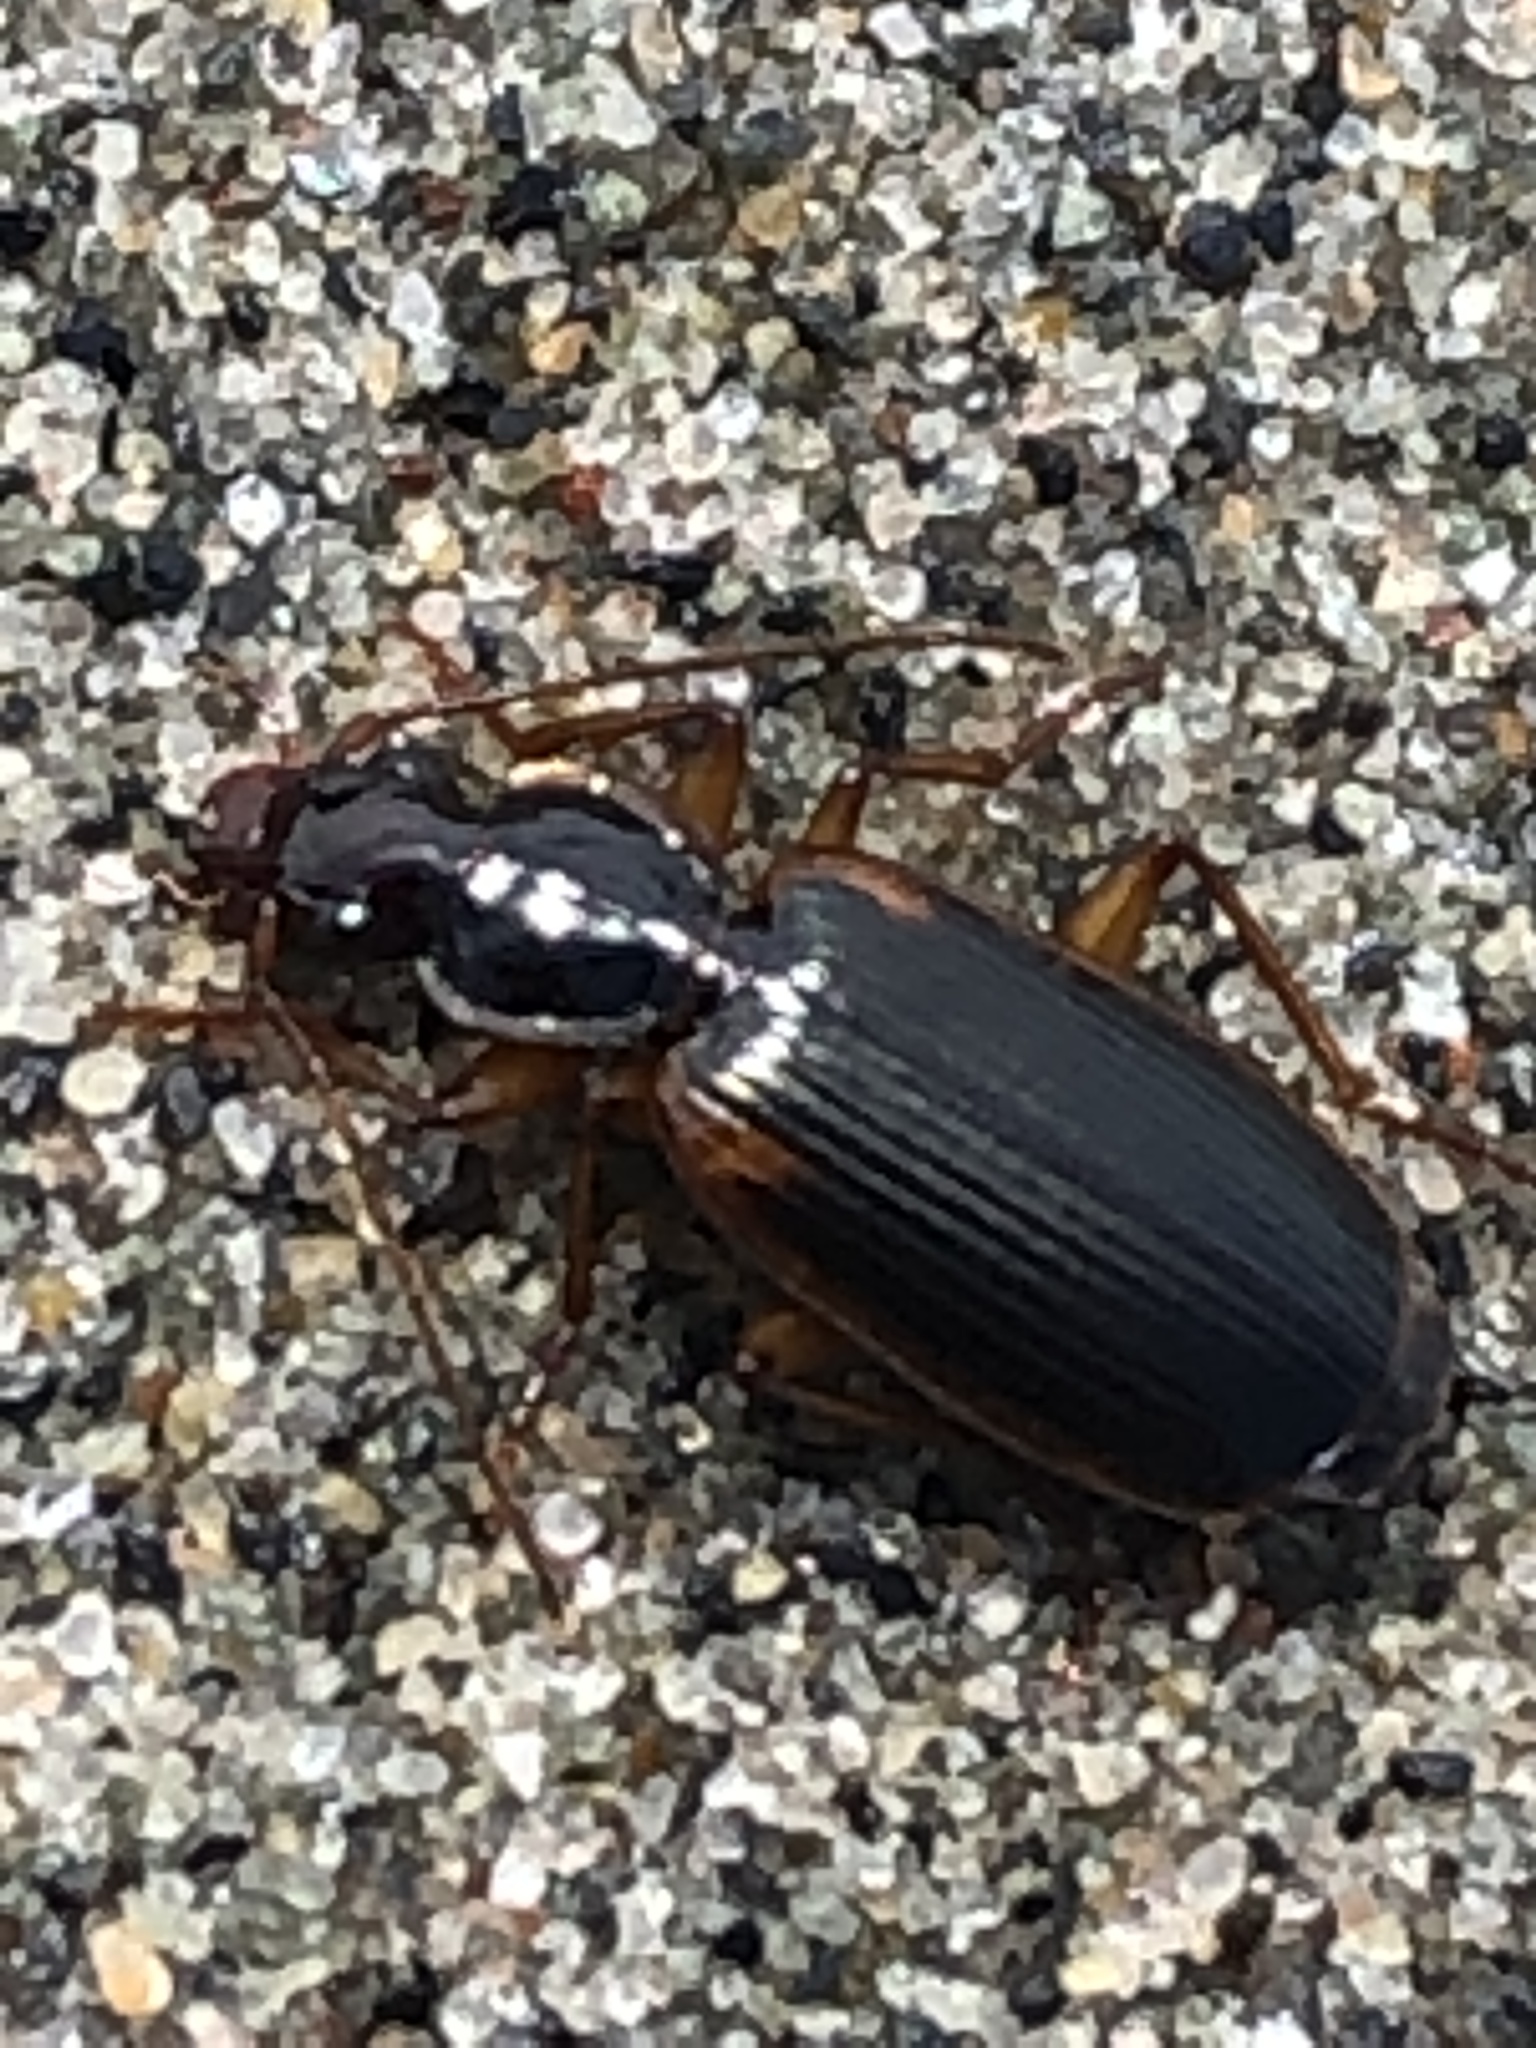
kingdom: Animalia
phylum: Arthropoda
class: Insecta
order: Coleoptera
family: Carabidae
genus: Pinacodera
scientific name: Pinacodera limbata
